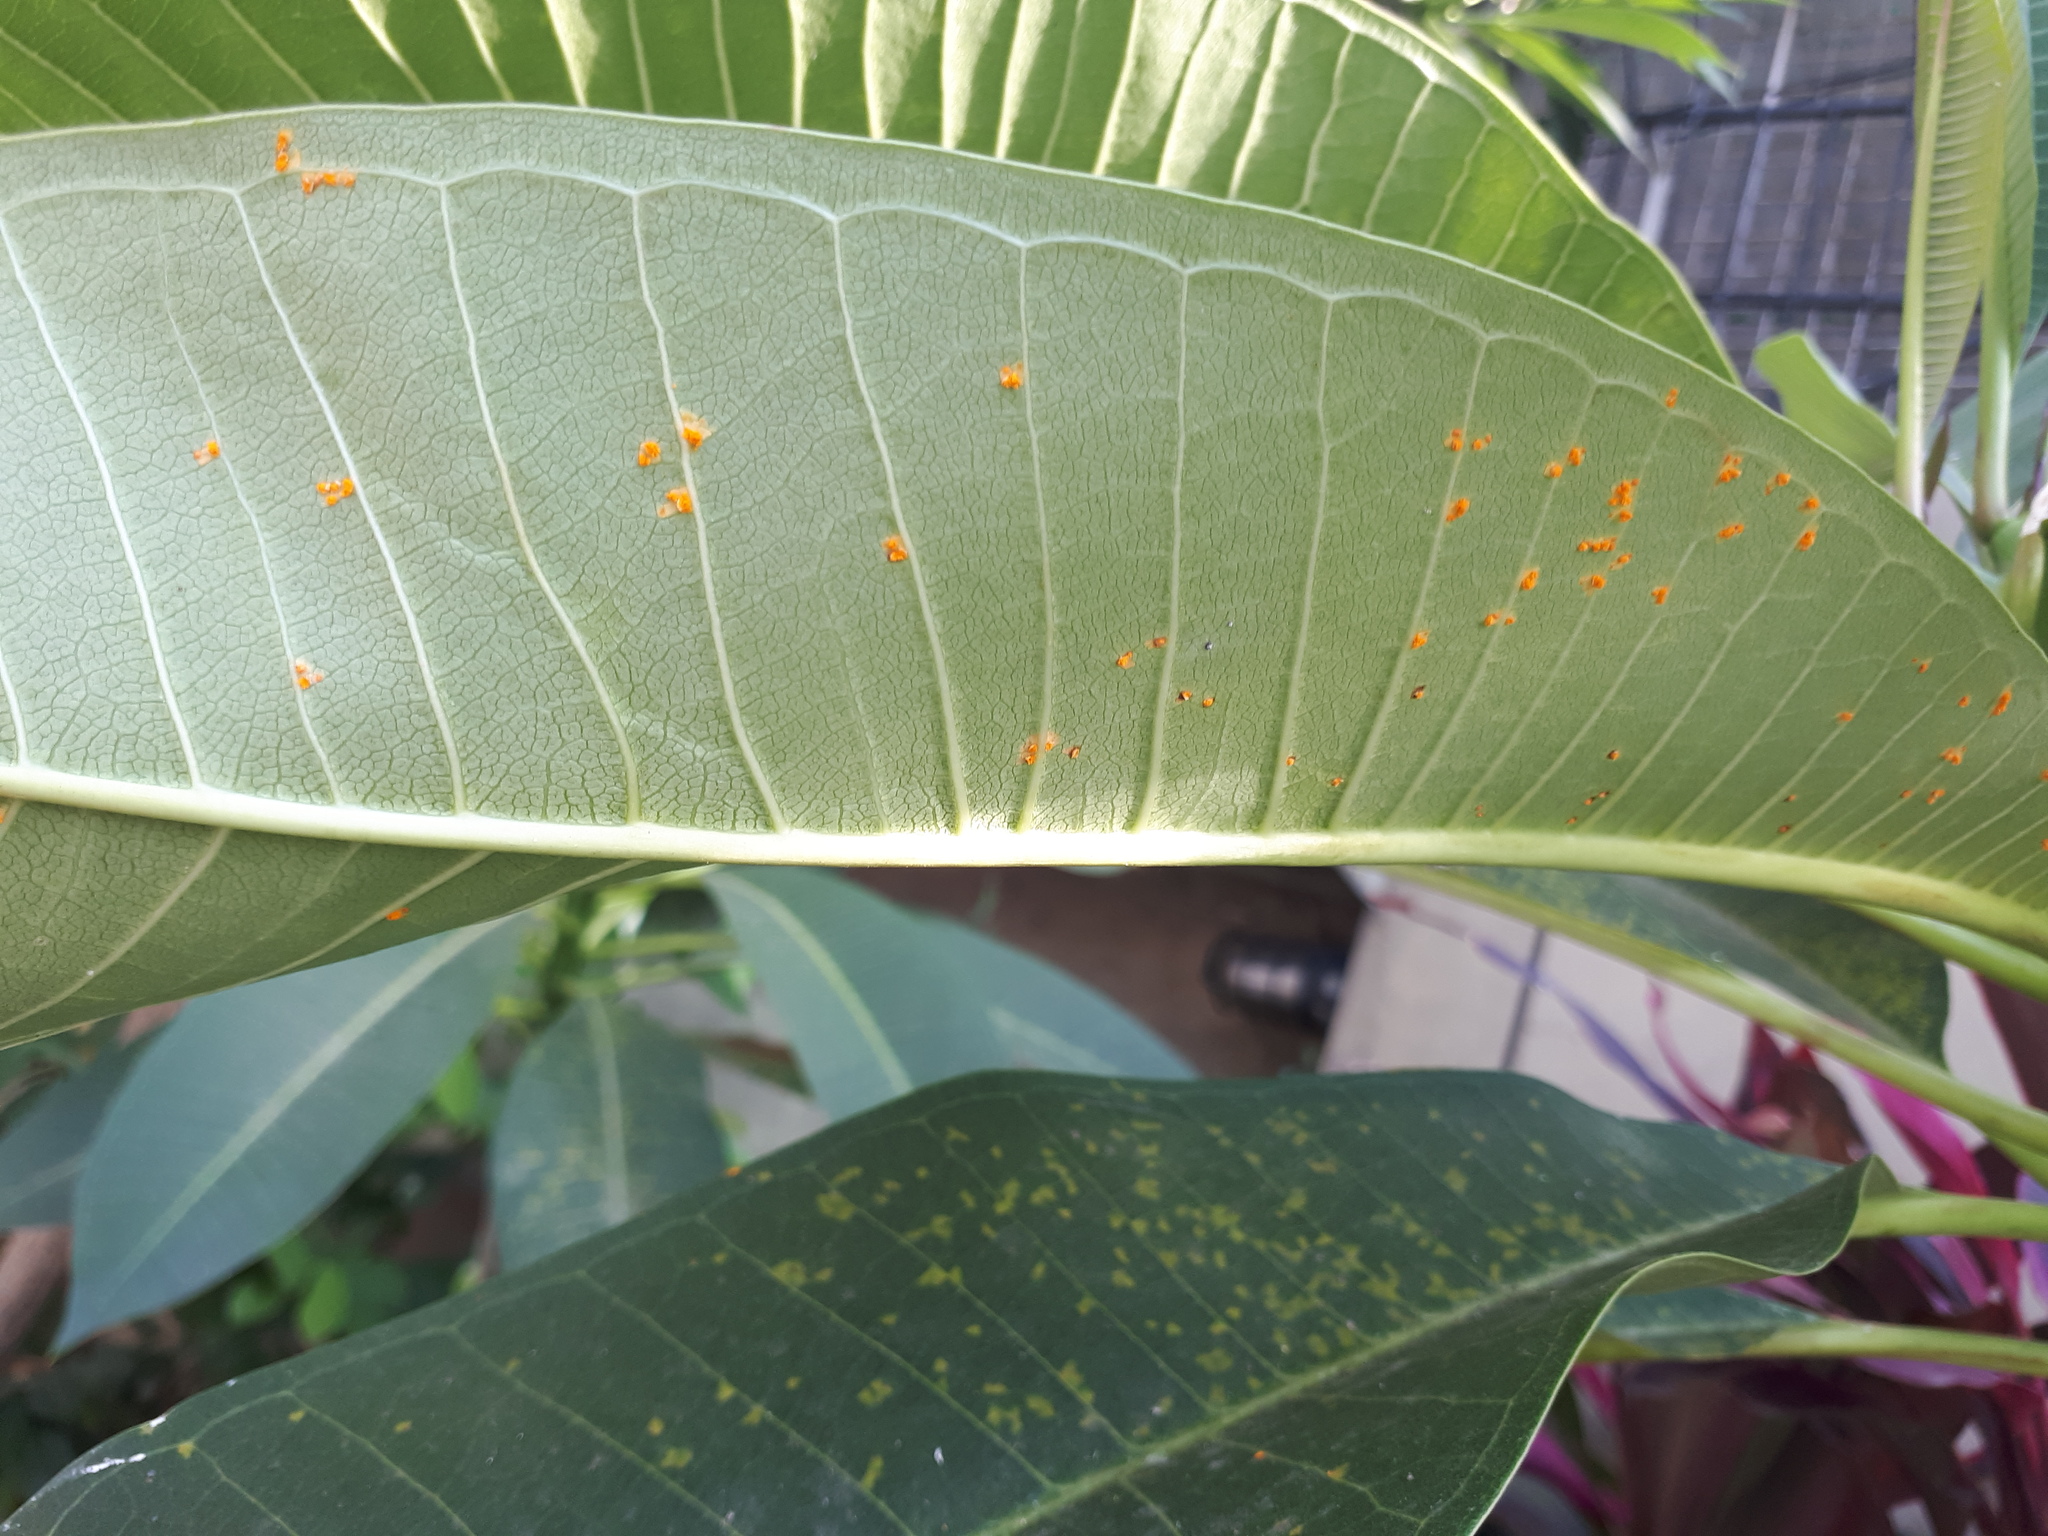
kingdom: Fungi
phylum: Basidiomycota
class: Pucciniomycetes
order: Pucciniales
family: Coleosporiaceae
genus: Coleosporium
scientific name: Coleosporium plumeriae
